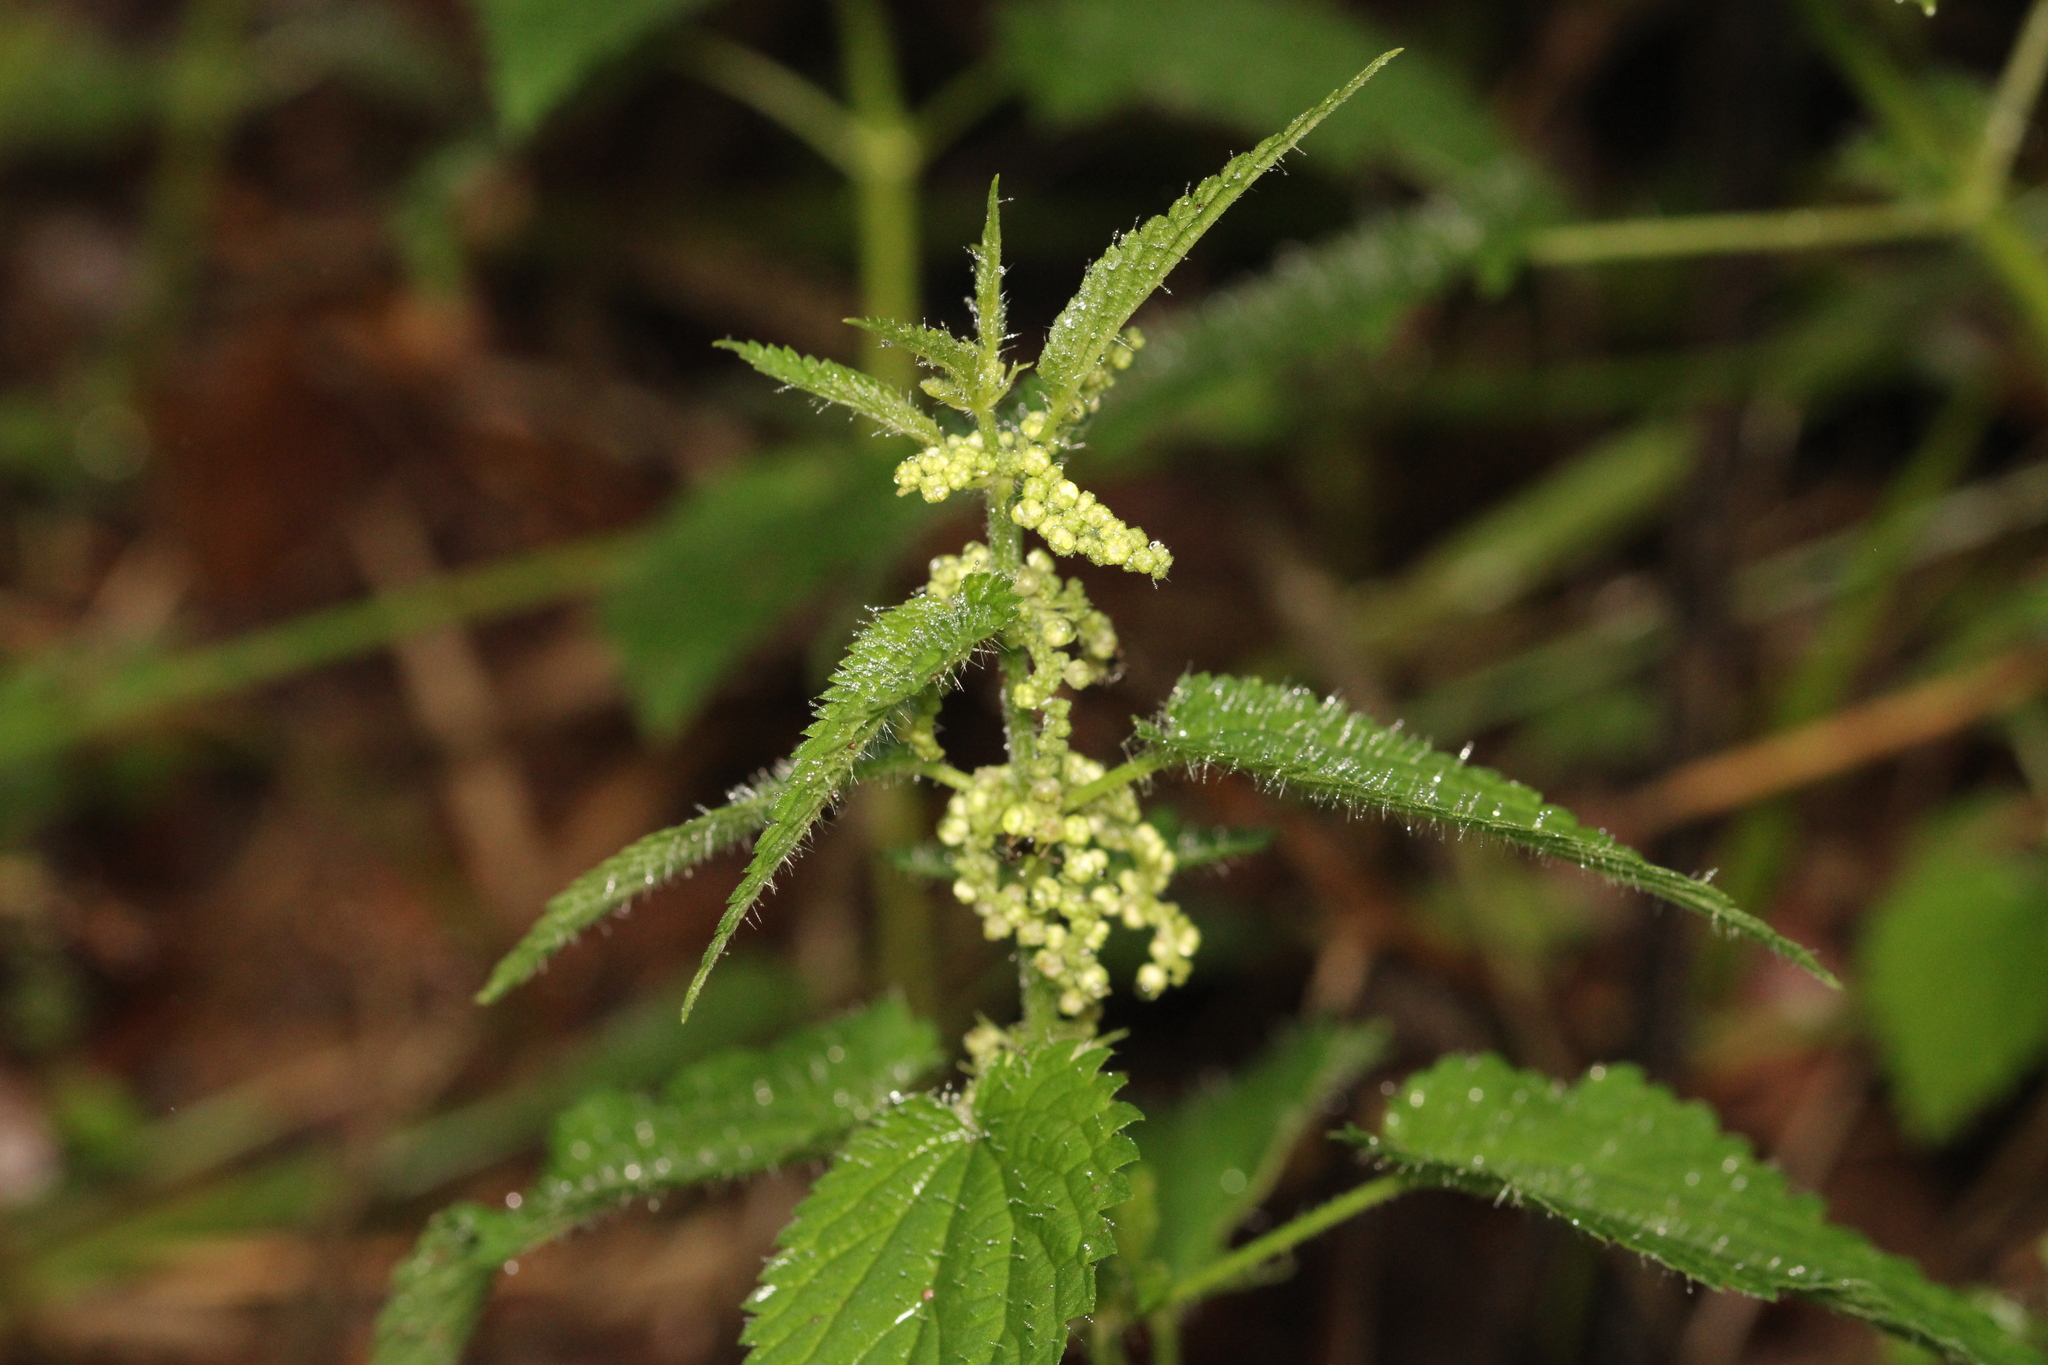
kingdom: Plantae
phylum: Tracheophyta
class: Magnoliopsida
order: Rosales
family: Urticaceae
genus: Urtica
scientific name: Urtica dioica
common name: Common nettle
